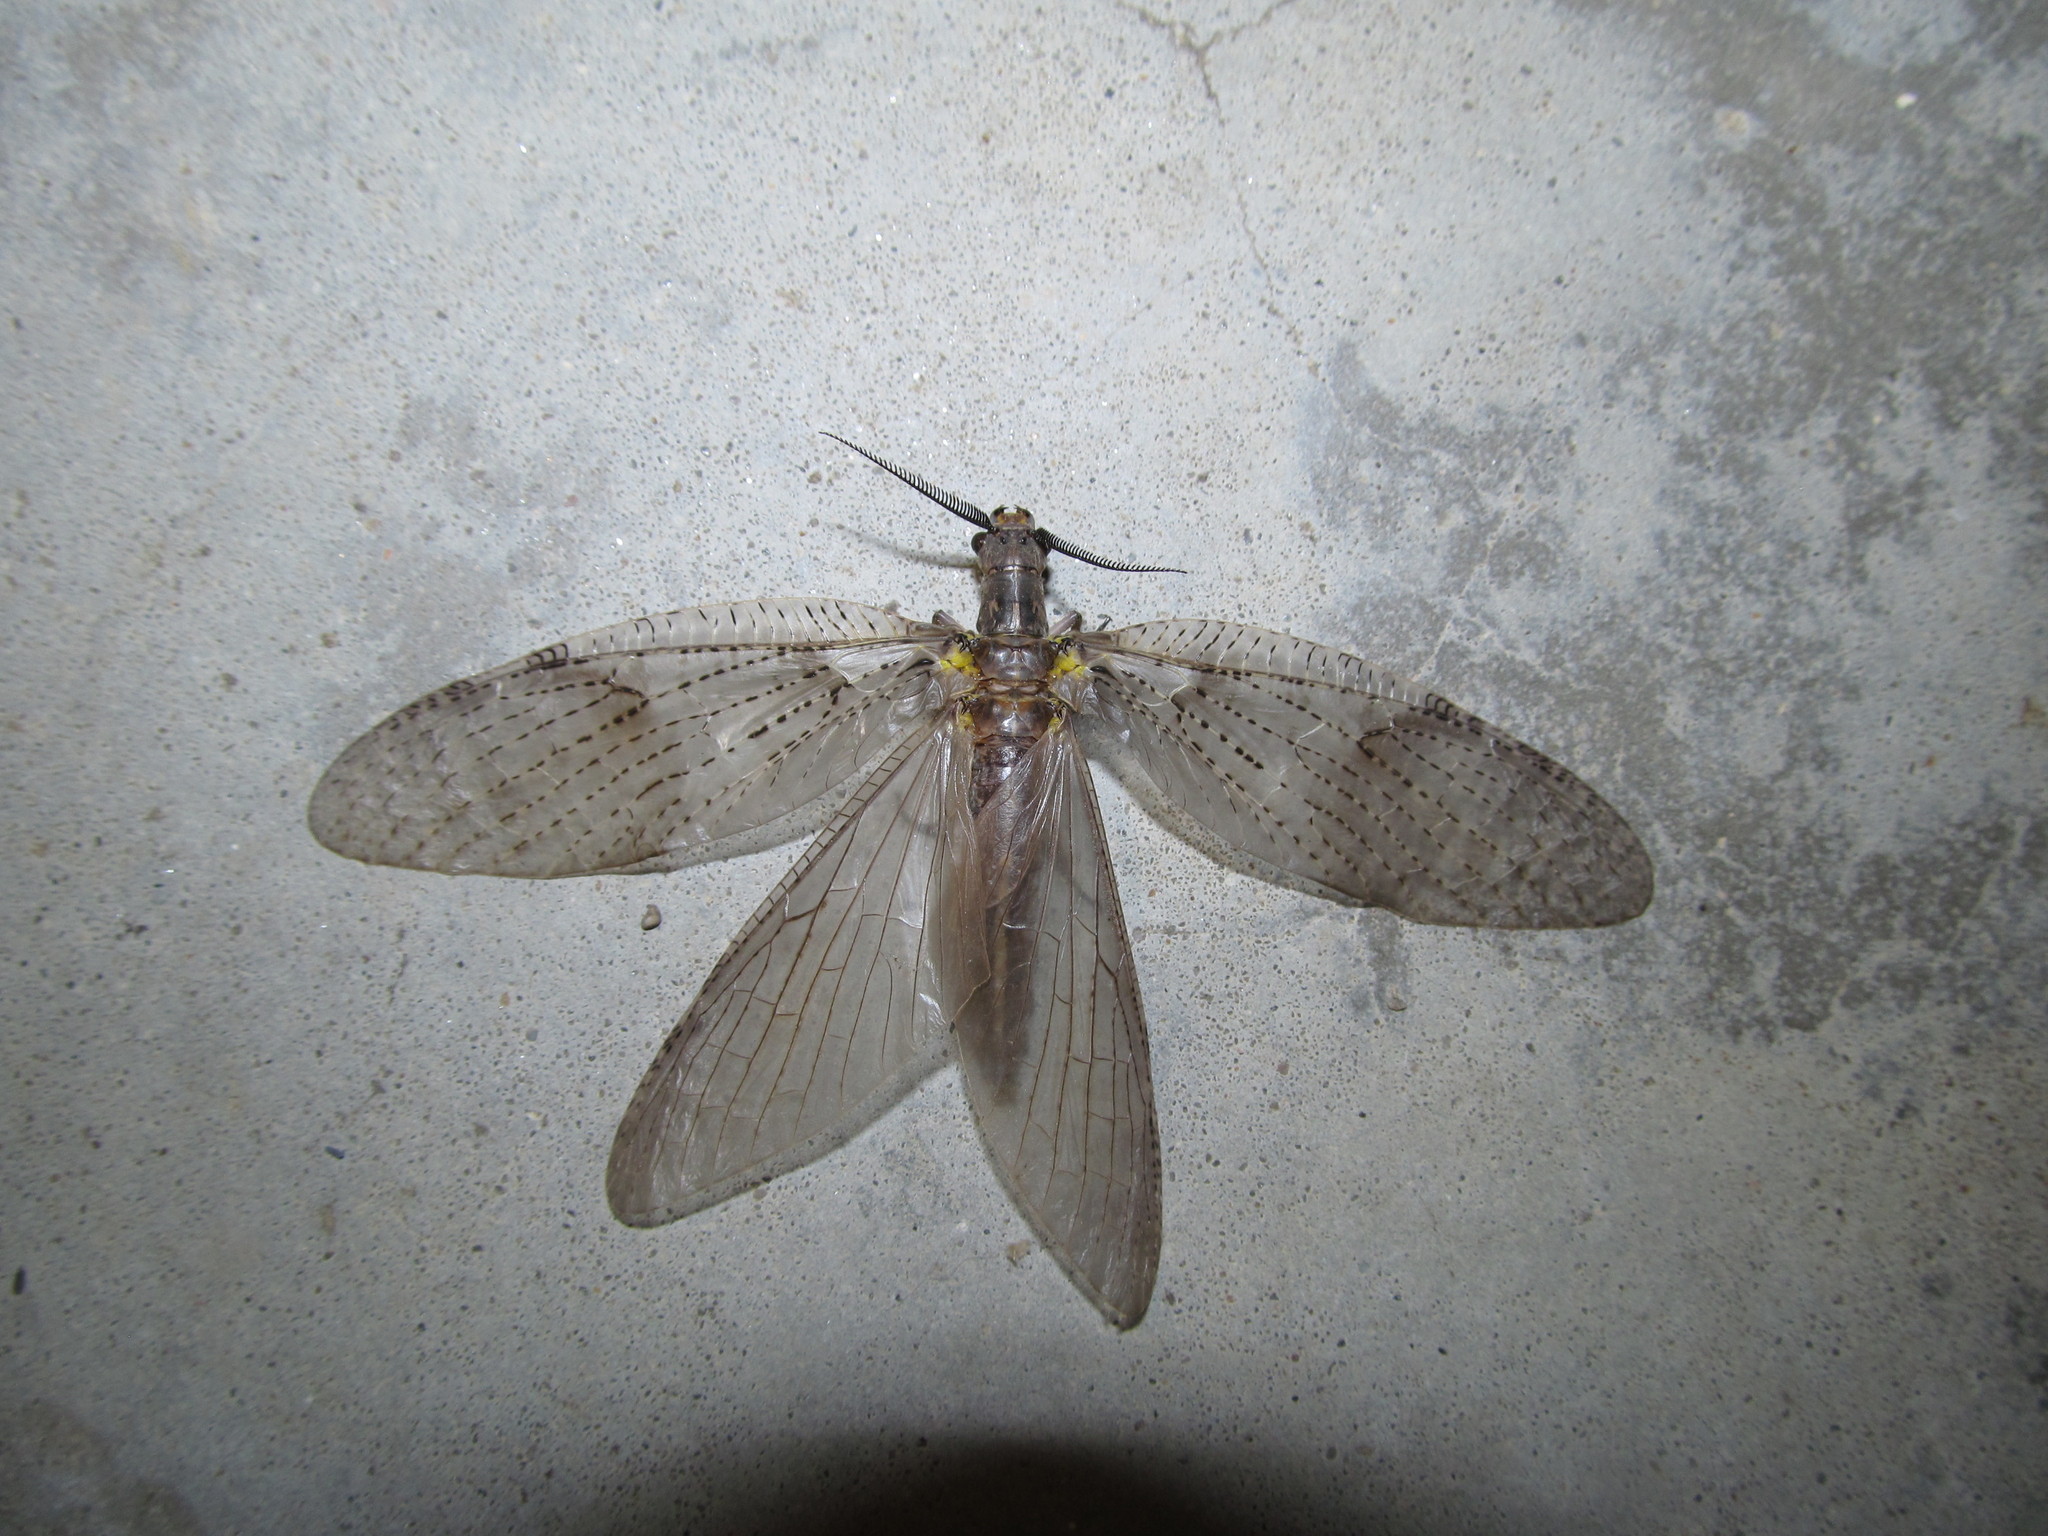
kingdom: Animalia
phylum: Arthropoda
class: Insecta
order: Megaloptera
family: Corydalidae
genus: Chauliodes
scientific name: Chauliodes pectinicornis
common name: Summer fishfly
